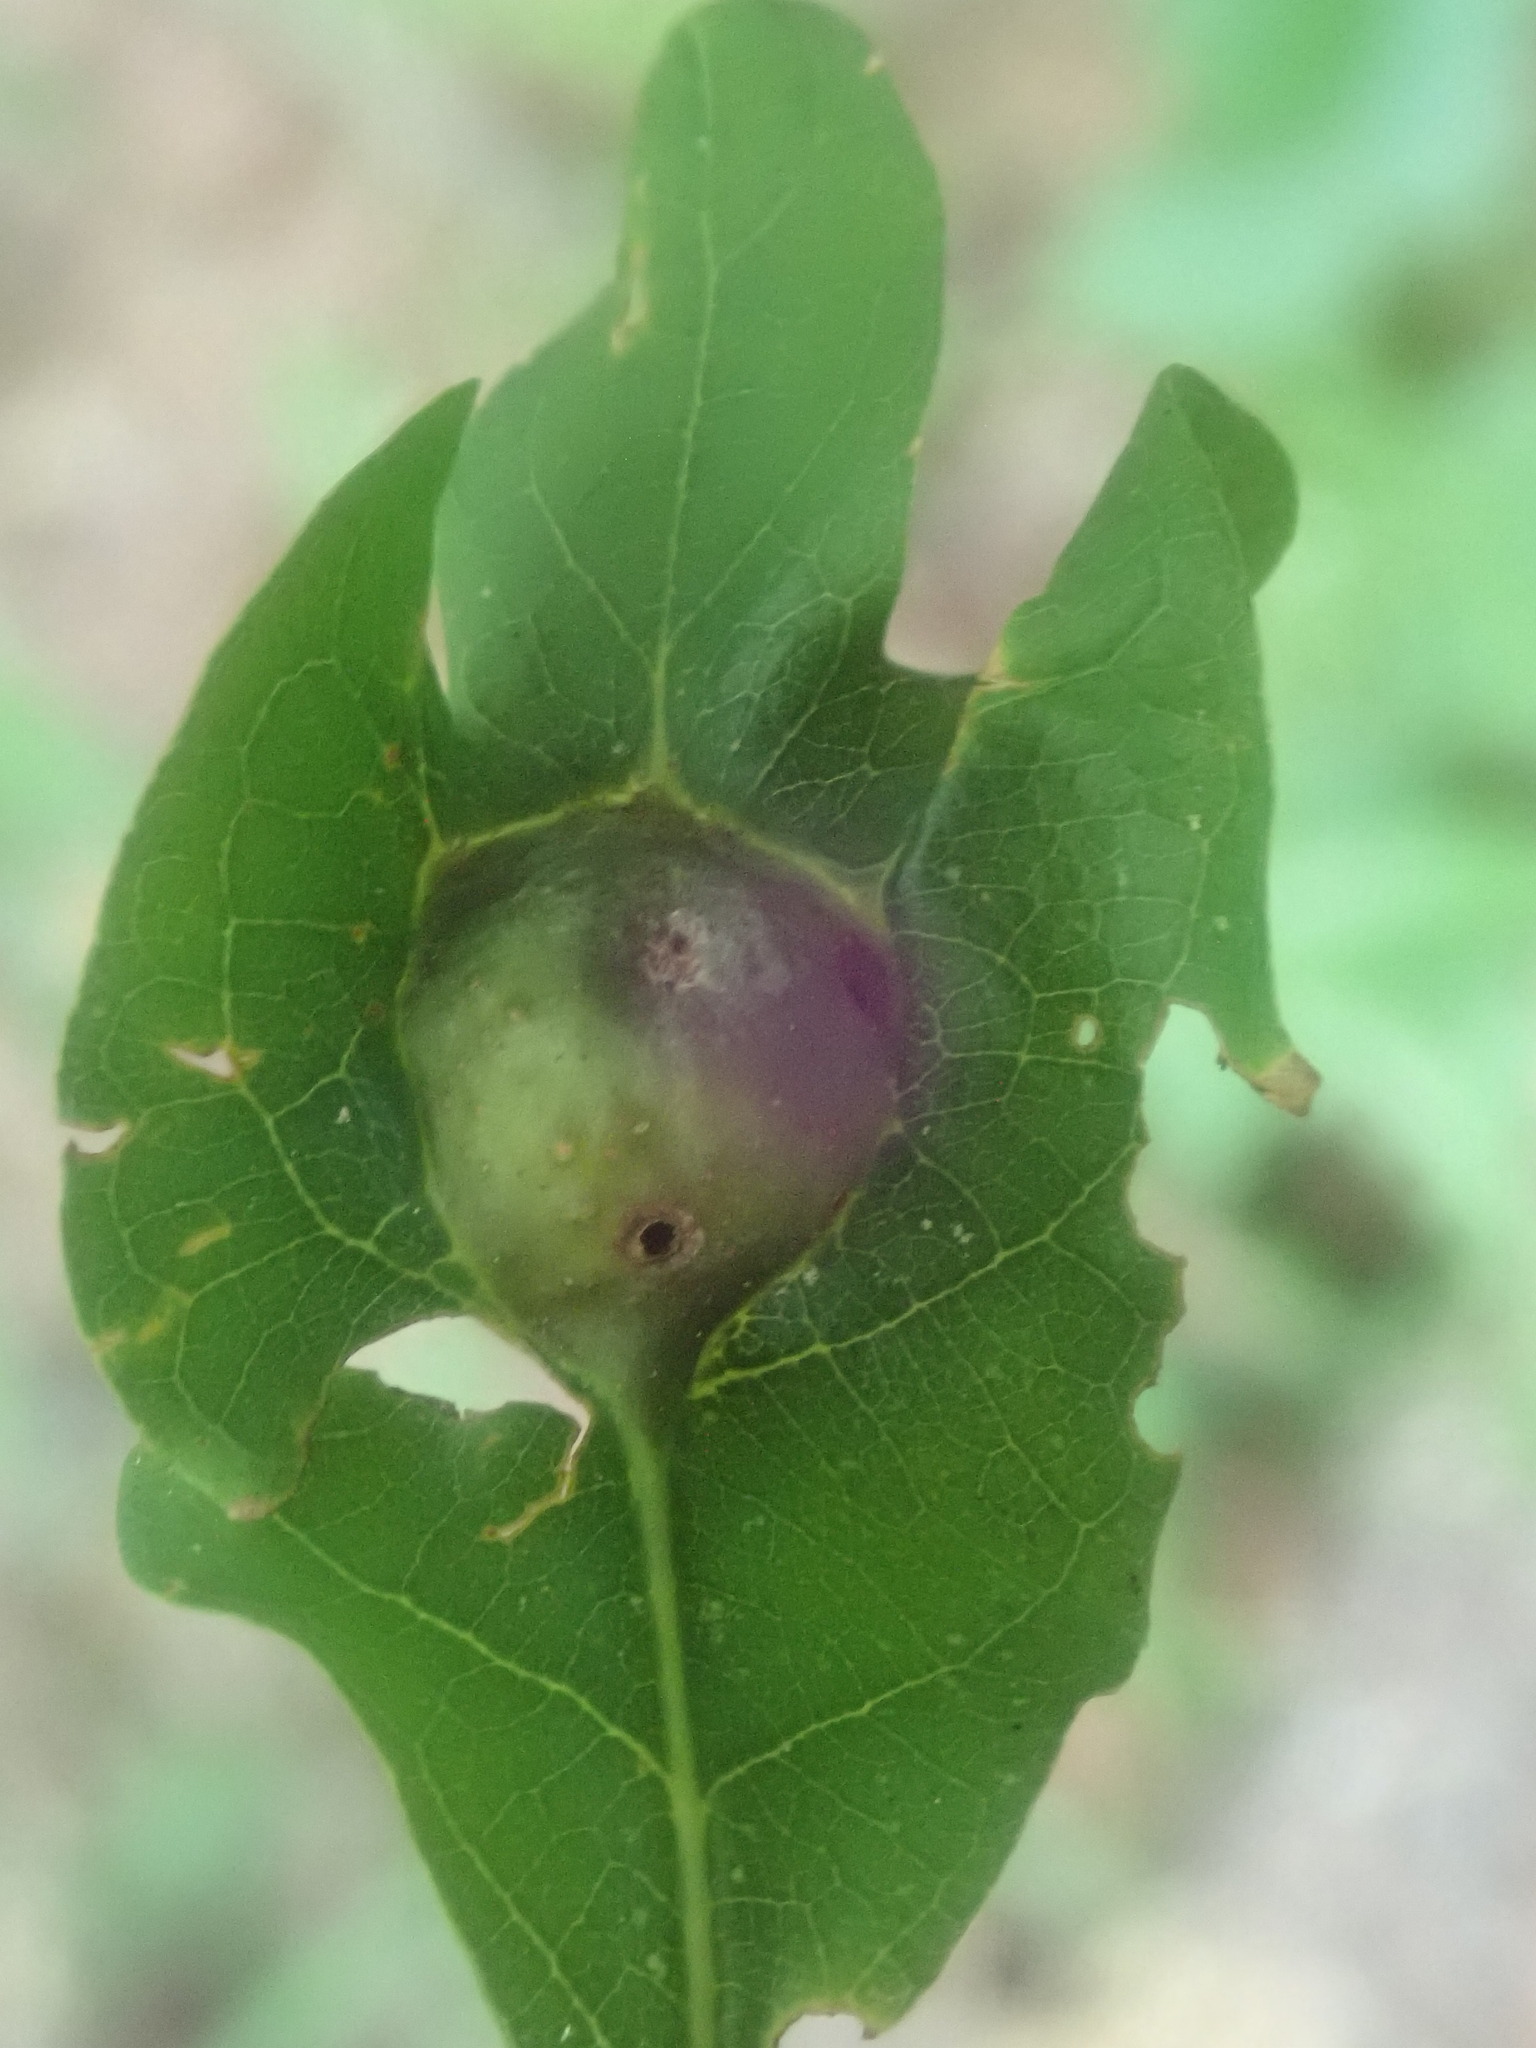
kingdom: Animalia
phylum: Arthropoda
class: Insecta
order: Hymenoptera
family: Cynipidae
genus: Andricus
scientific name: Andricus
